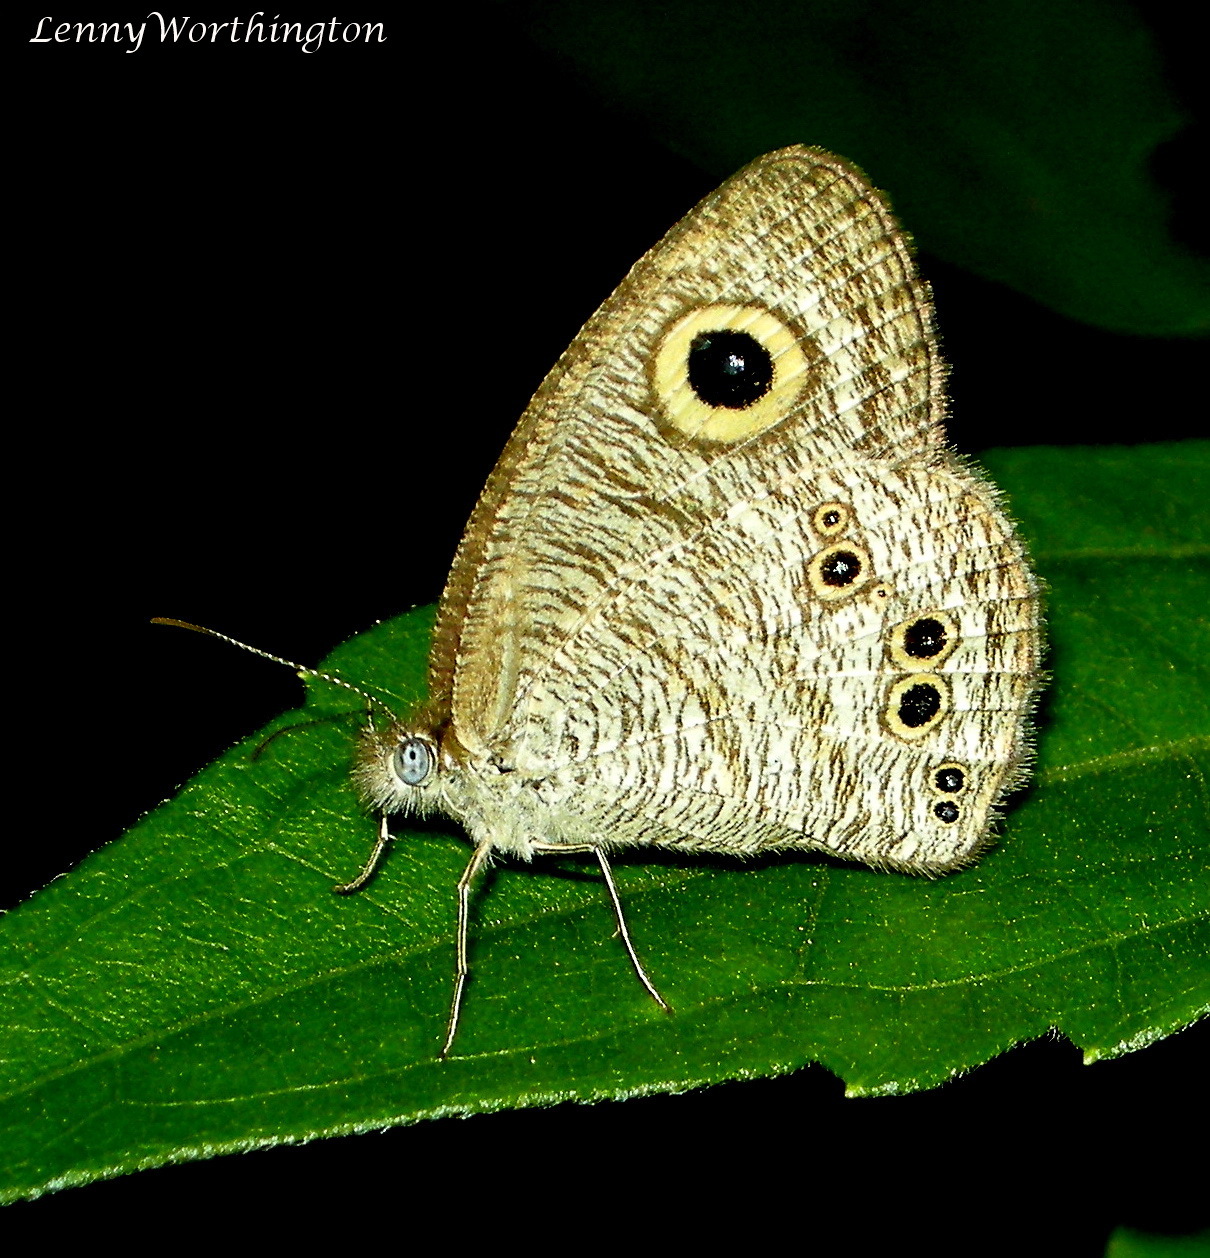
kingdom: Animalia
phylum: Arthropoda
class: Insecta
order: Lepidoptera
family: Nymphalidae
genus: Ypthima
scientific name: Ypthima baldus
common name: Common five-ring
